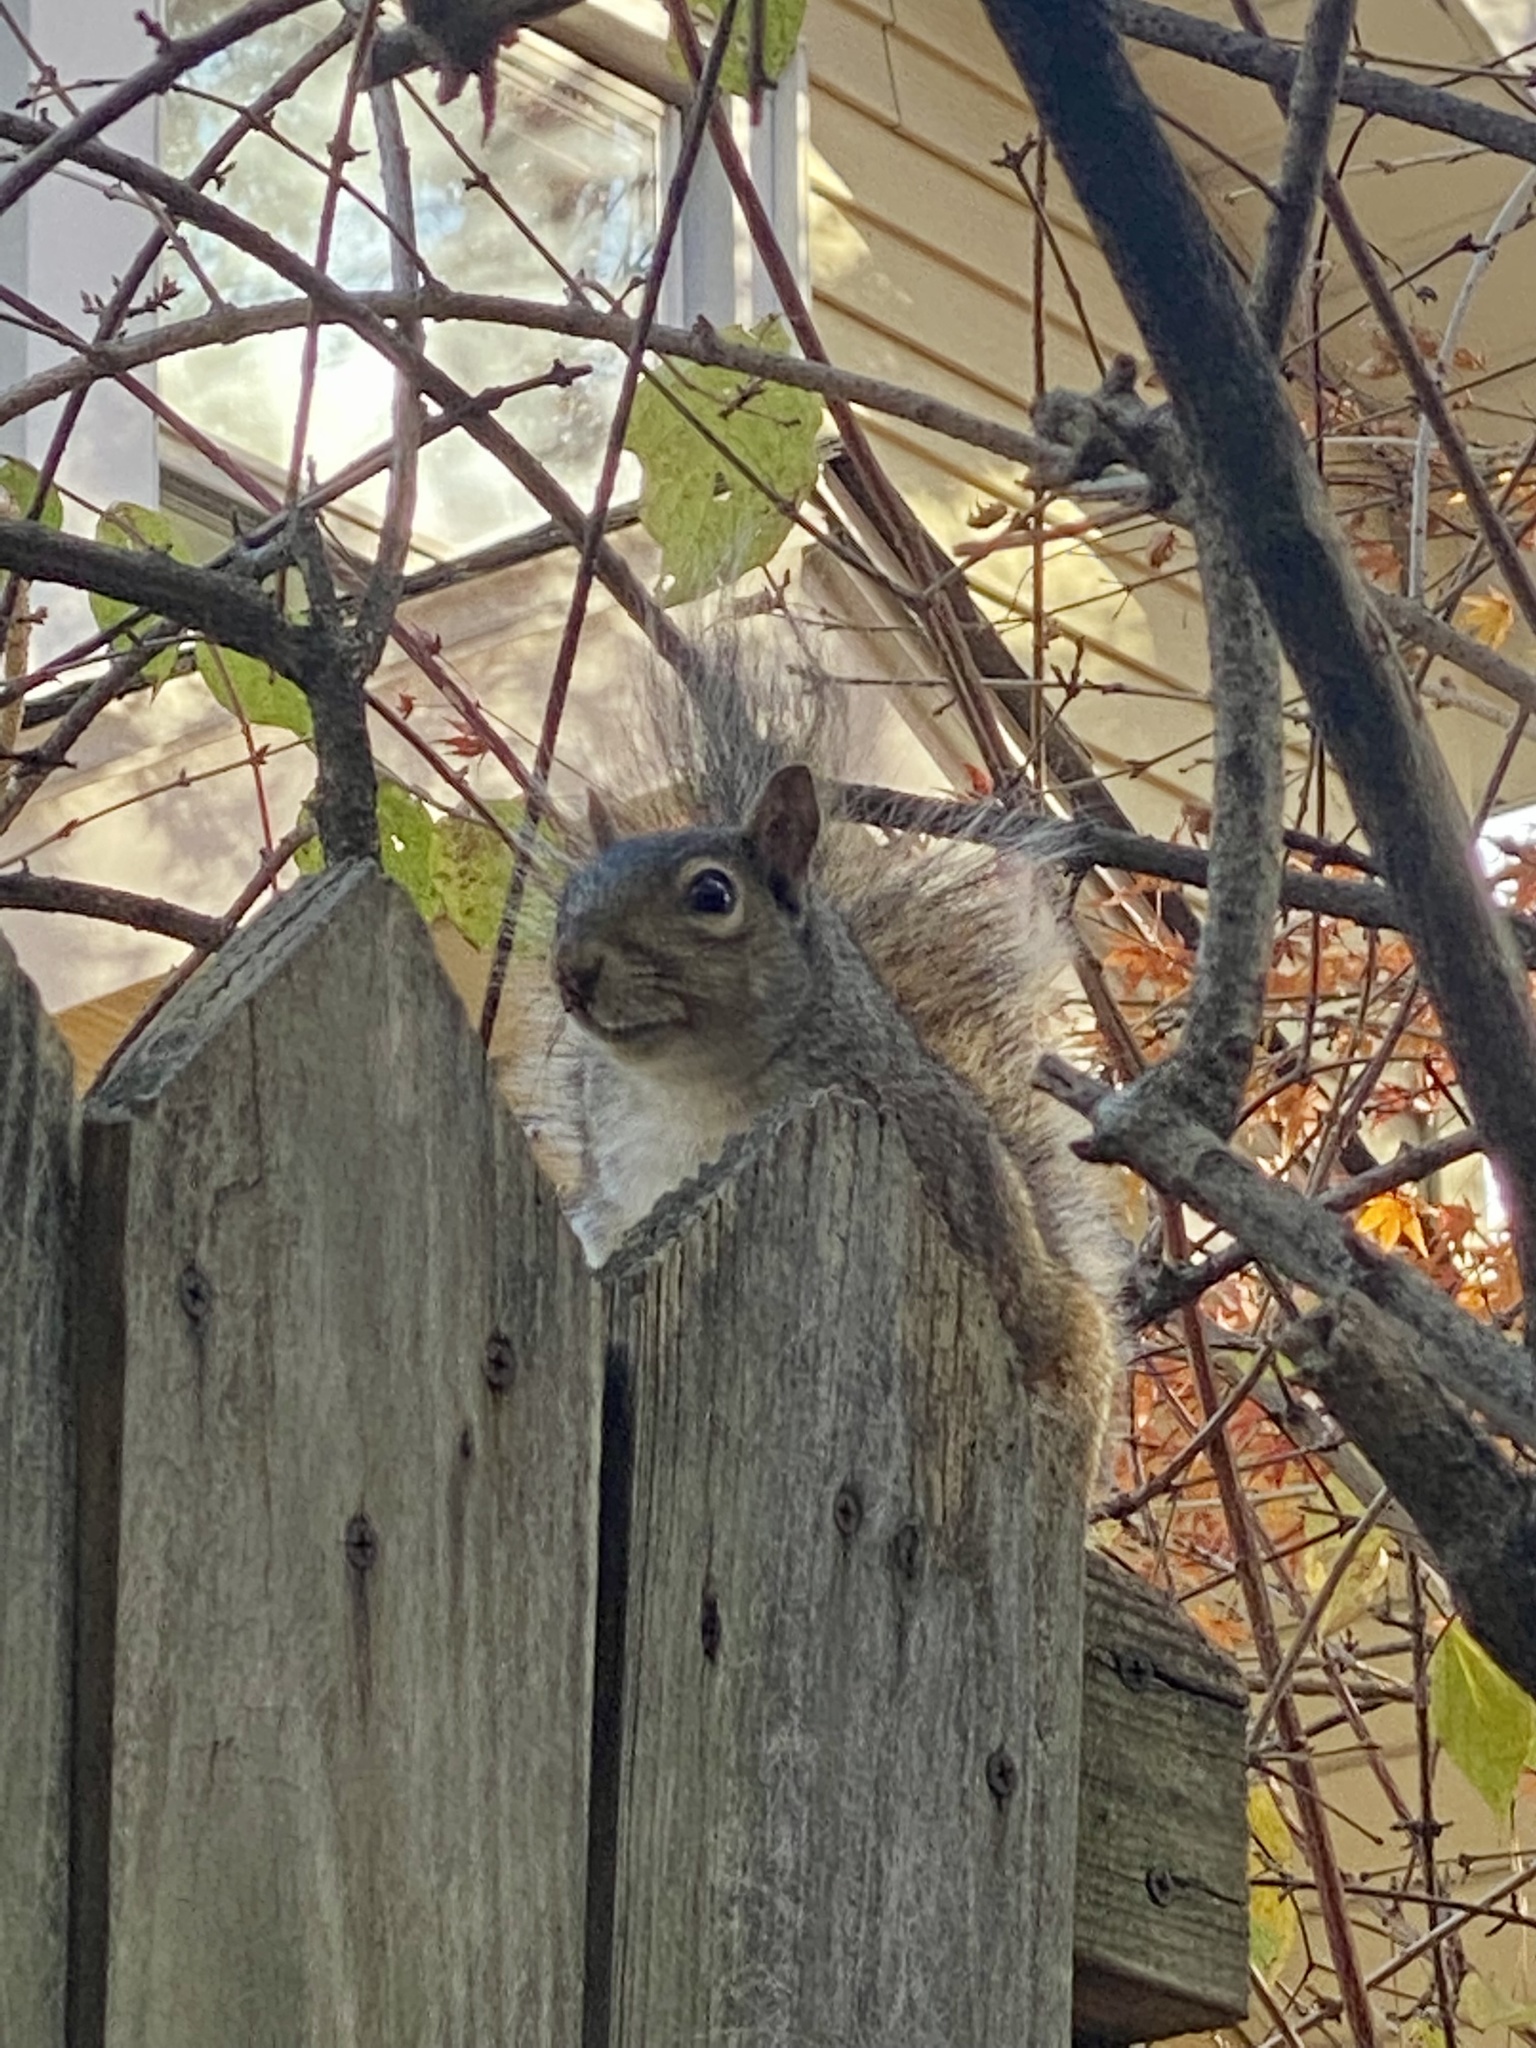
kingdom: Animalia
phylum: Chordata
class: Mammalia
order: Rodentia
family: Sciuridae
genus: Sciurus
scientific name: Sciurus carolinensis
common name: Eastern gray squirrel
